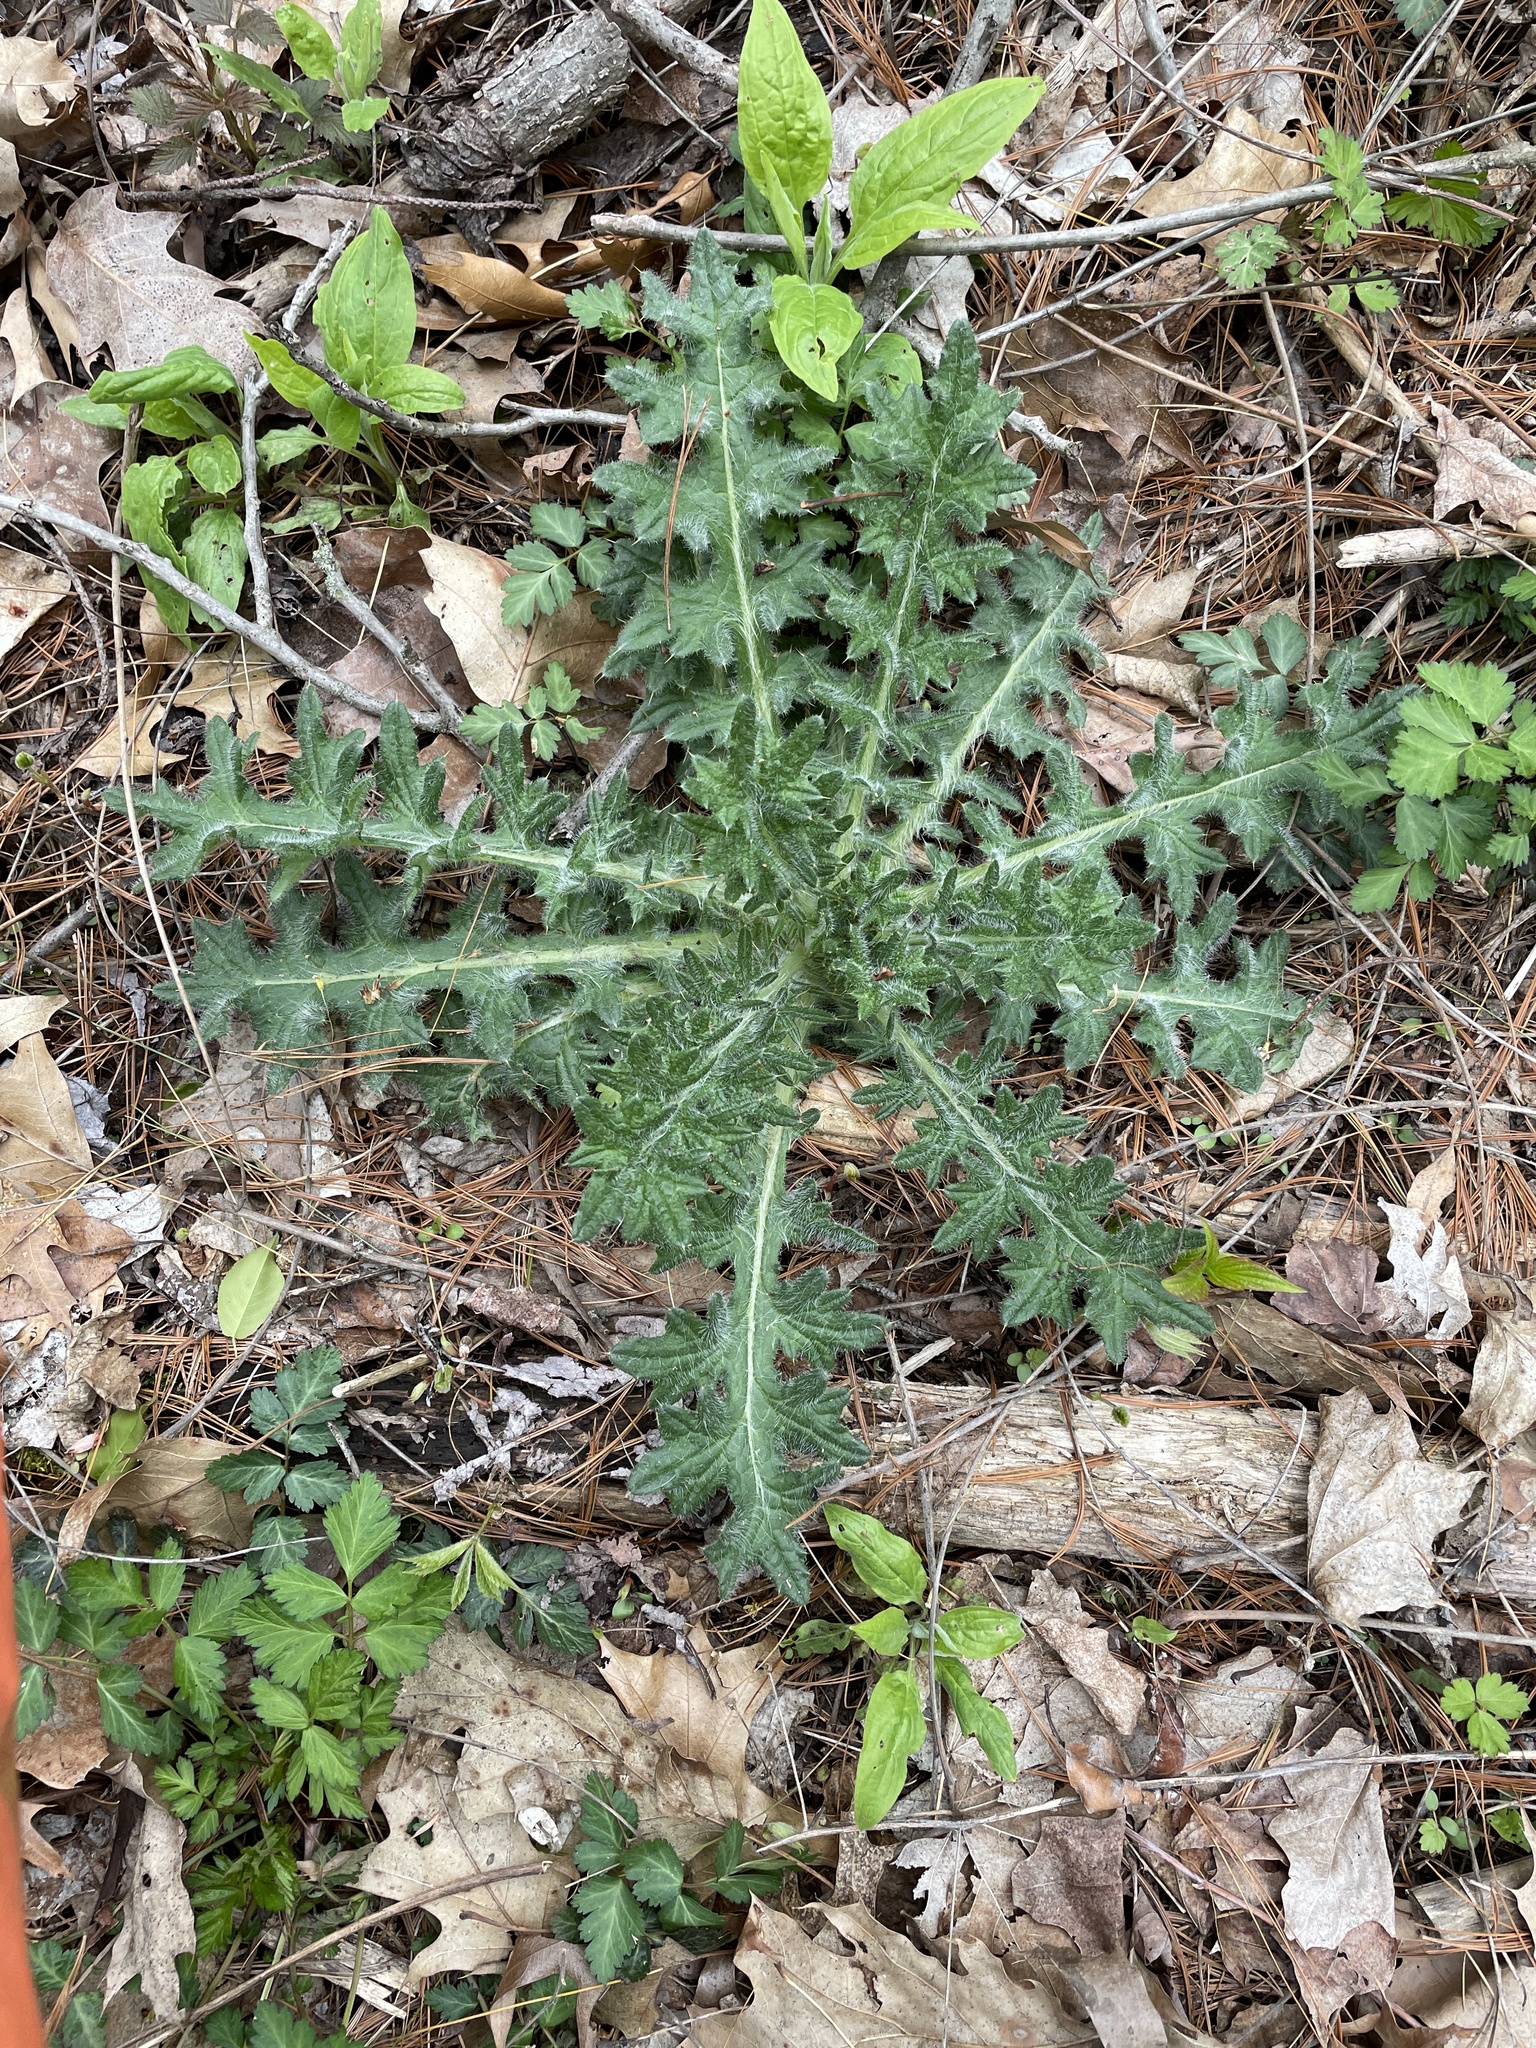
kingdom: Plantae
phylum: Tracheophyta
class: Magnoliopsida
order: Asterales
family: Asteraceae
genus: Cirsium
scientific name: Cirsium vulgare
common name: Bull thistle
